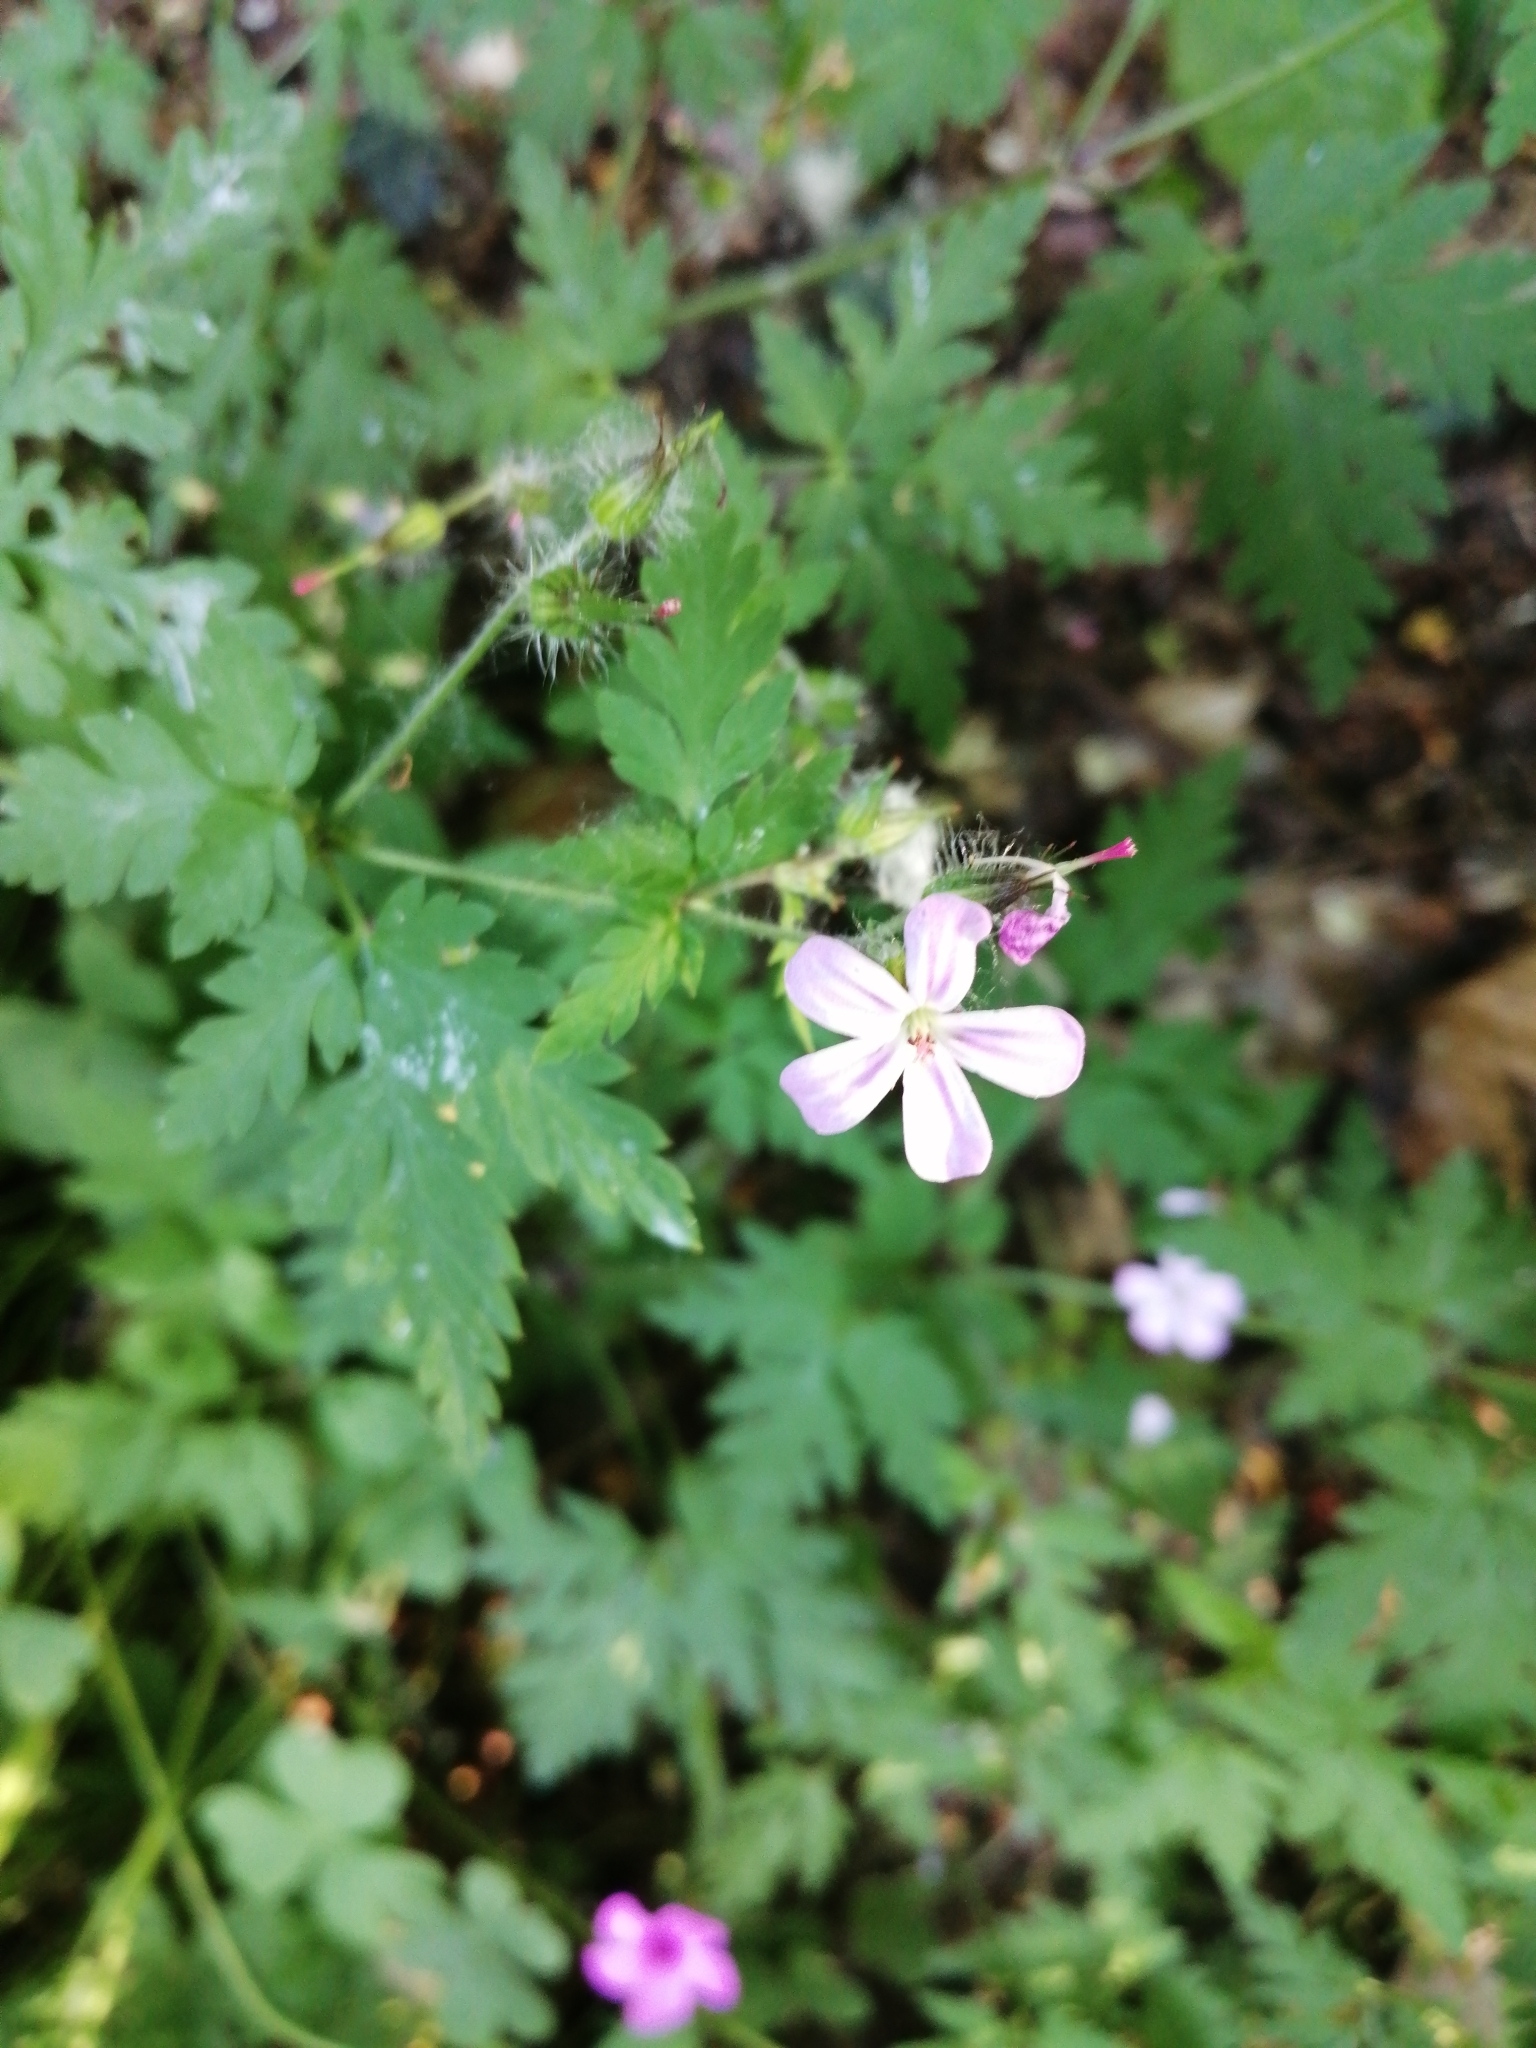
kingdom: Plantae
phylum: Tracheophyta
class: Magnoliopsida
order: Geraniales
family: Geraniaceae
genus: Geranium
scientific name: Geranium robertianum
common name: Herb-robert
